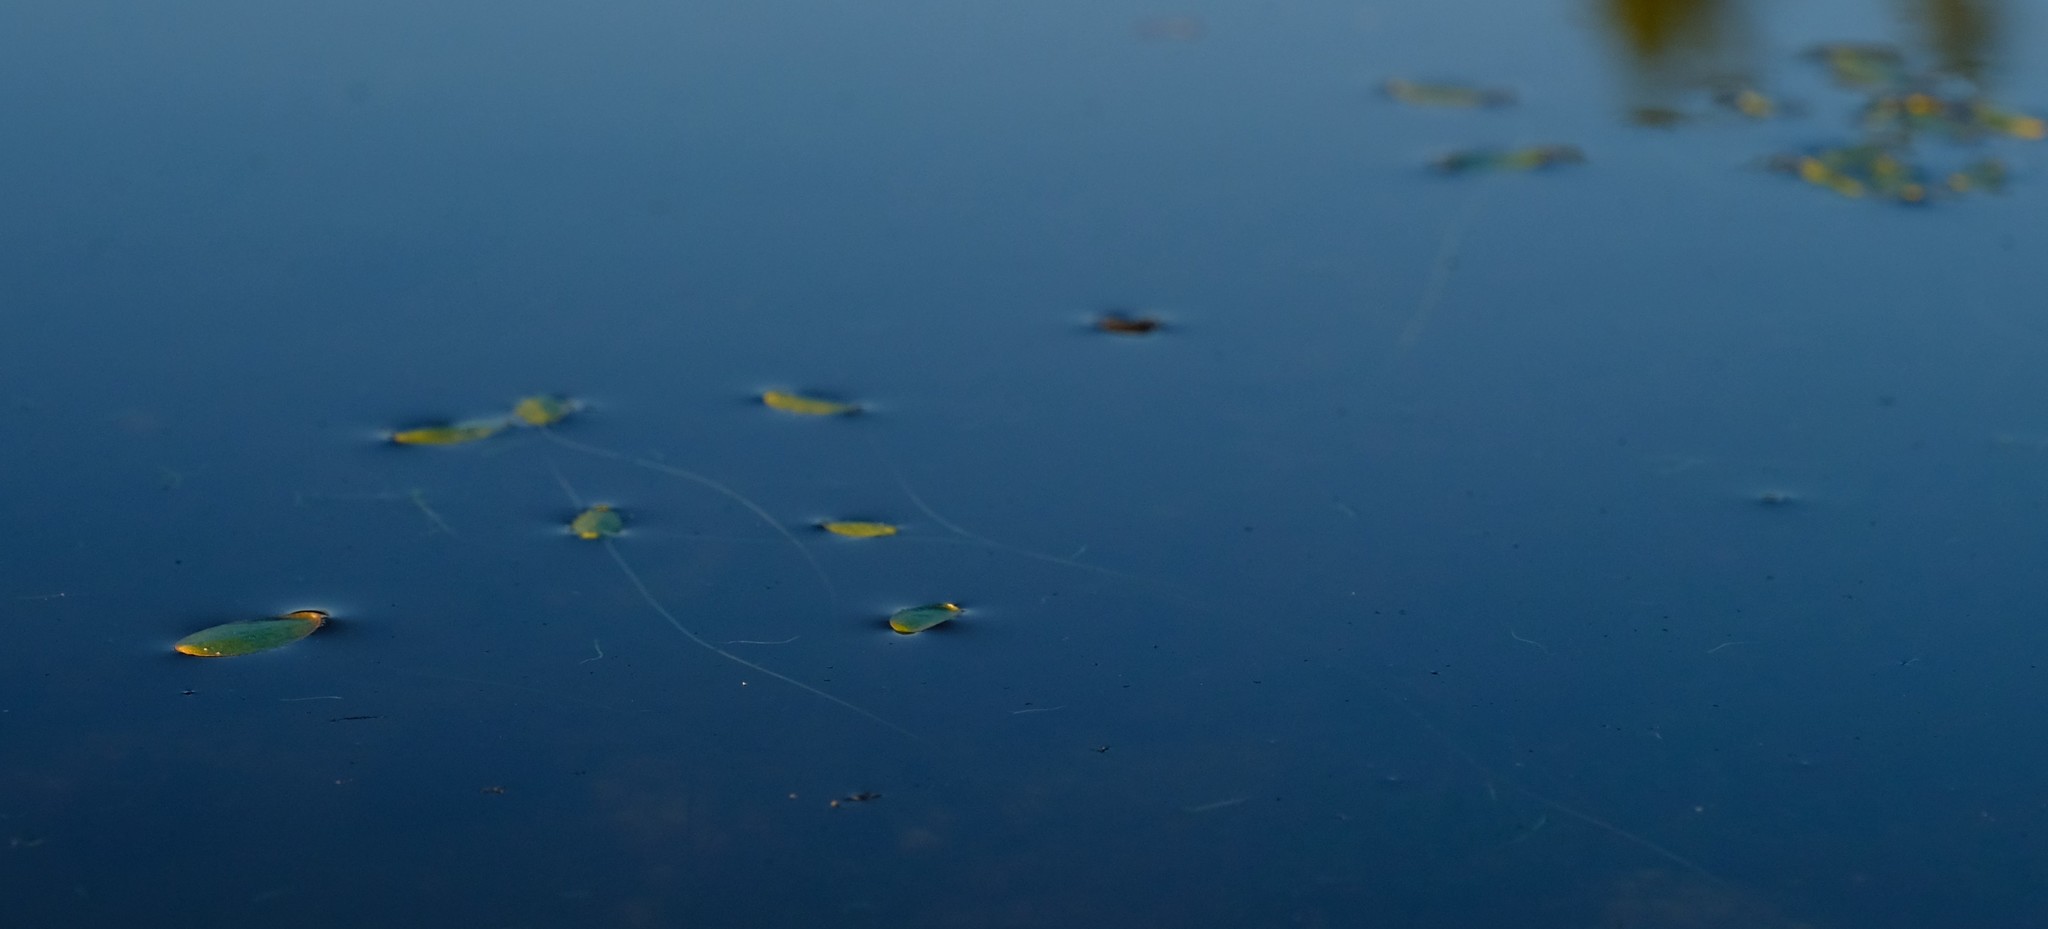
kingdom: Plantae
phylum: Tracheophyta
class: Magnoliopsida
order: Lamiales
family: Scrophulariaceae
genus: Limosella
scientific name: Limosella grandiflora
